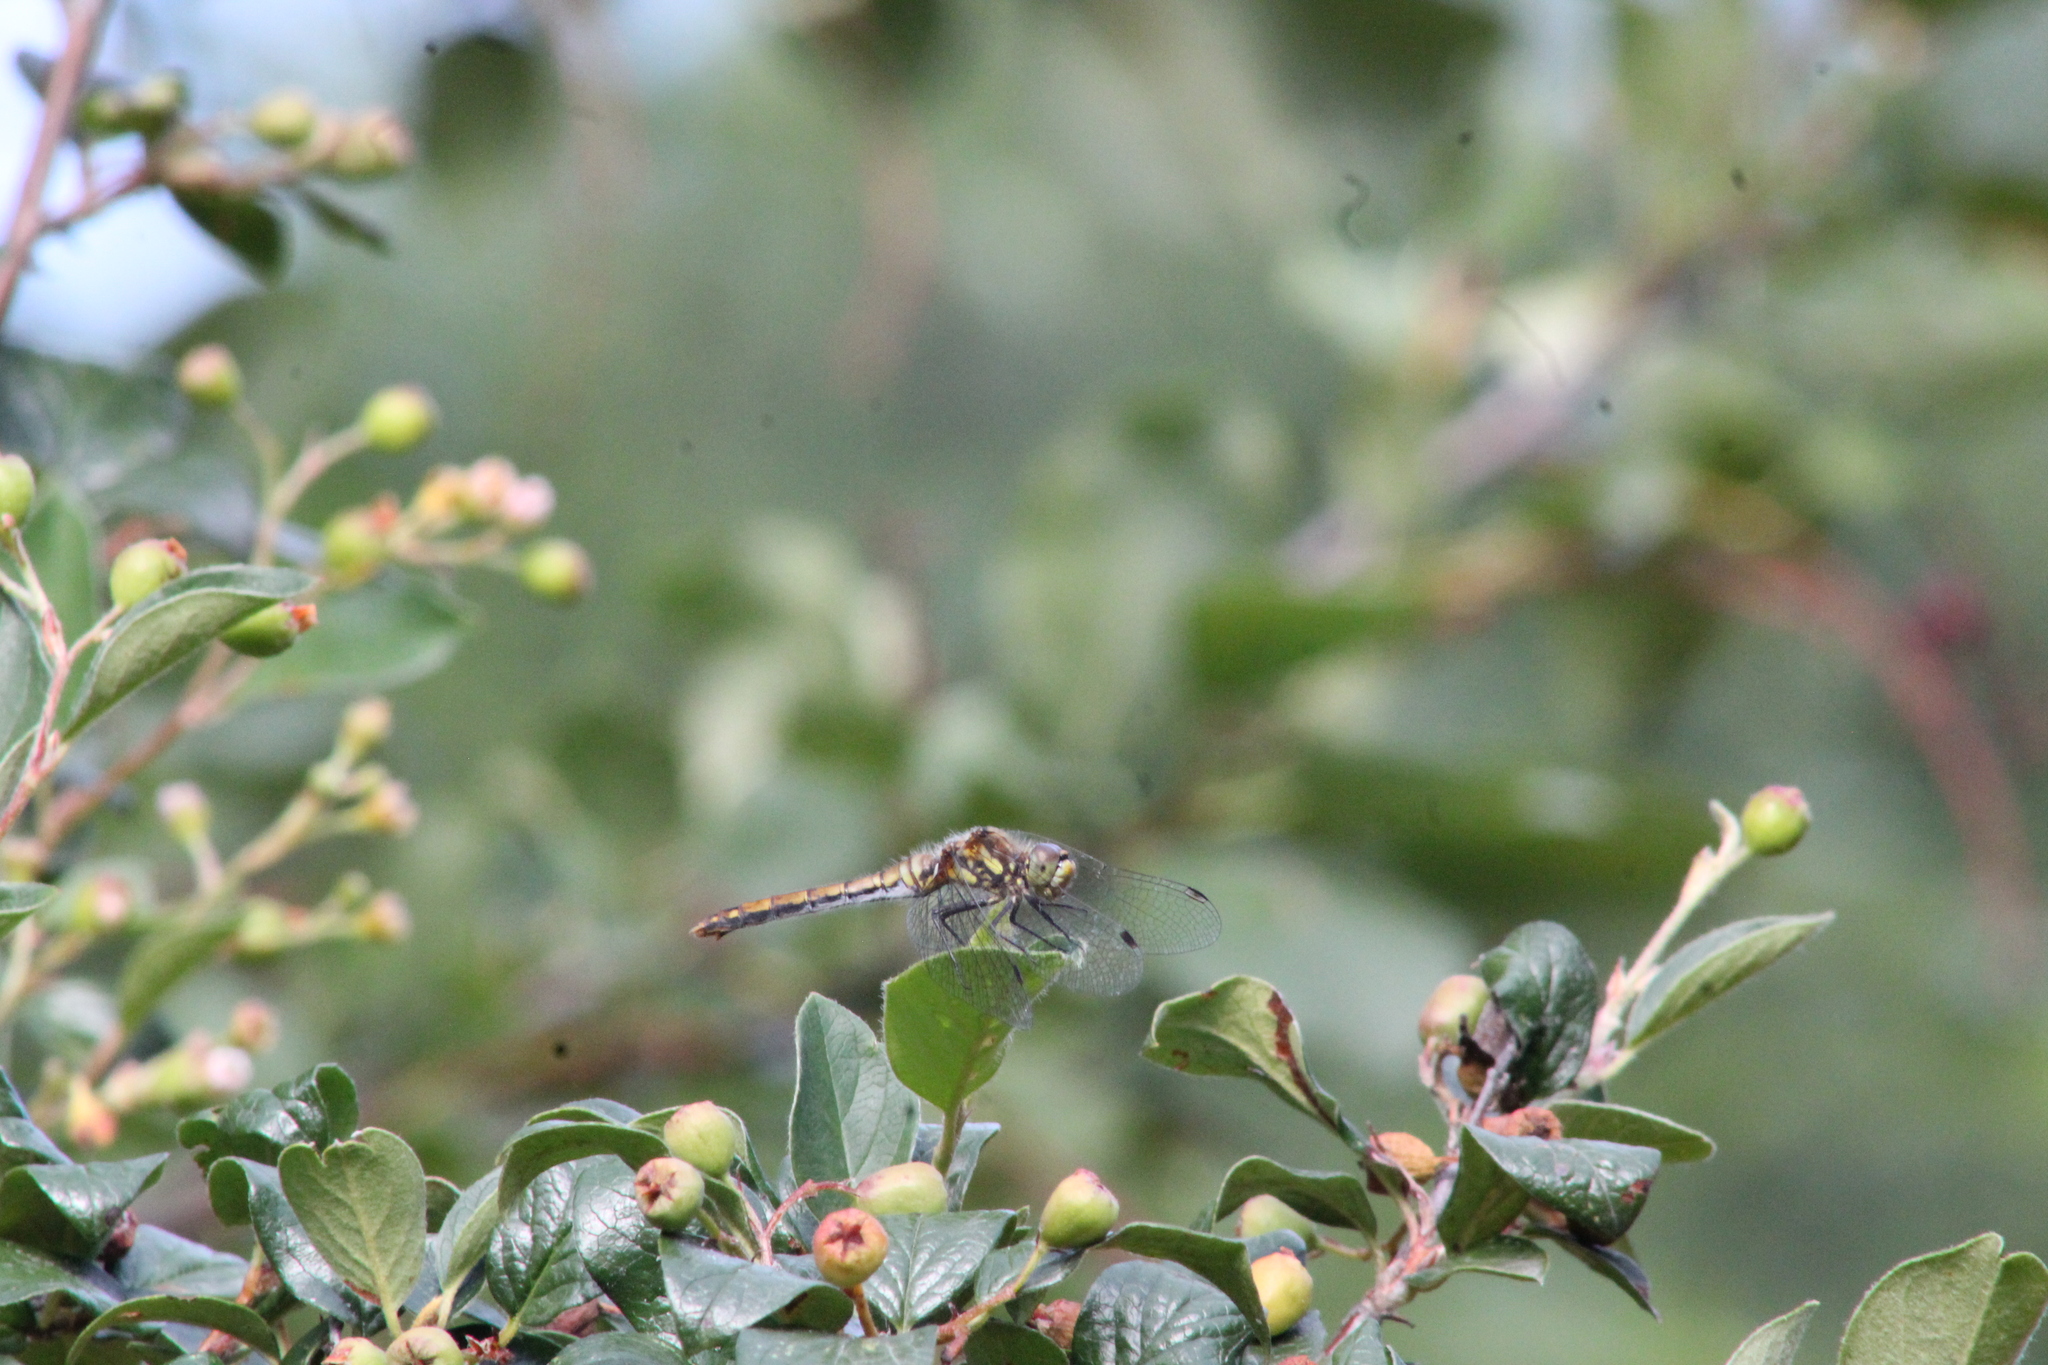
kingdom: Animalia
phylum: Arthropoda
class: Insecta
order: Odonata
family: Libellulidae
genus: Sympetrum
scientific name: Sympetrum danae
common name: Black darter
